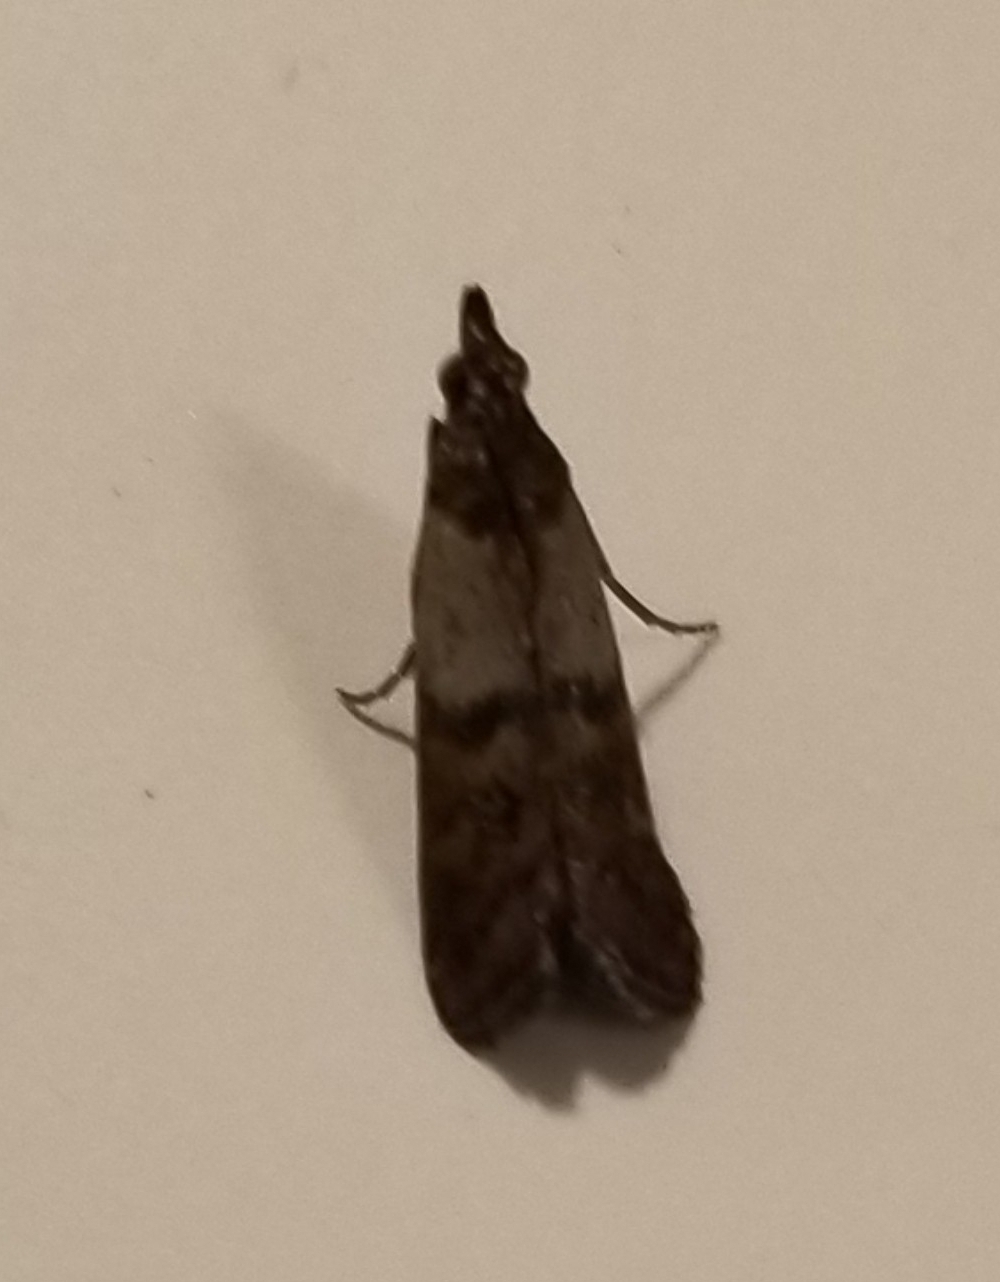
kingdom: Animalia
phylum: Arthropoda
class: Insecta
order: Lepidoptera
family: Pyralidae
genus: Plodia
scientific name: Plodia interpunctella
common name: Indian meal moth
